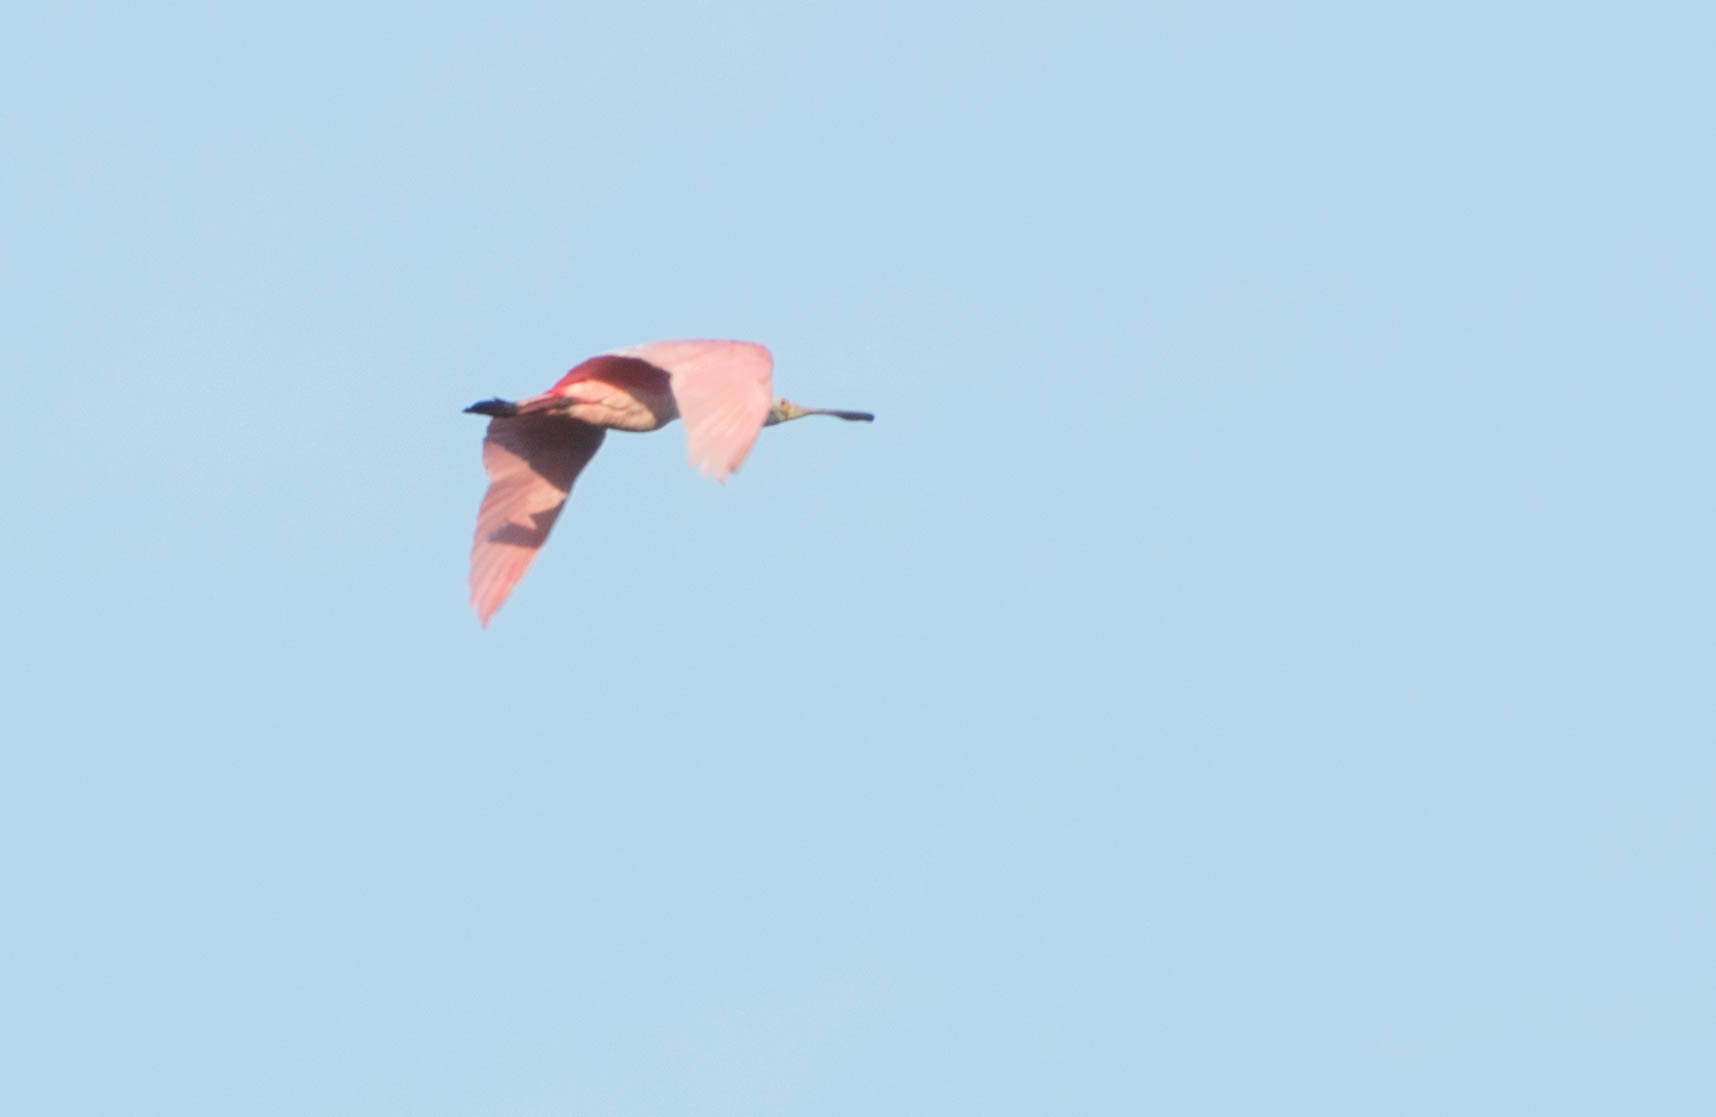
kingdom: Animalia
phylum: Chordata
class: Aves
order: Pelecaniformes
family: Threskiornithidae
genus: Platalea
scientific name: Platalea ajaja
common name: Roseate spoonbill
